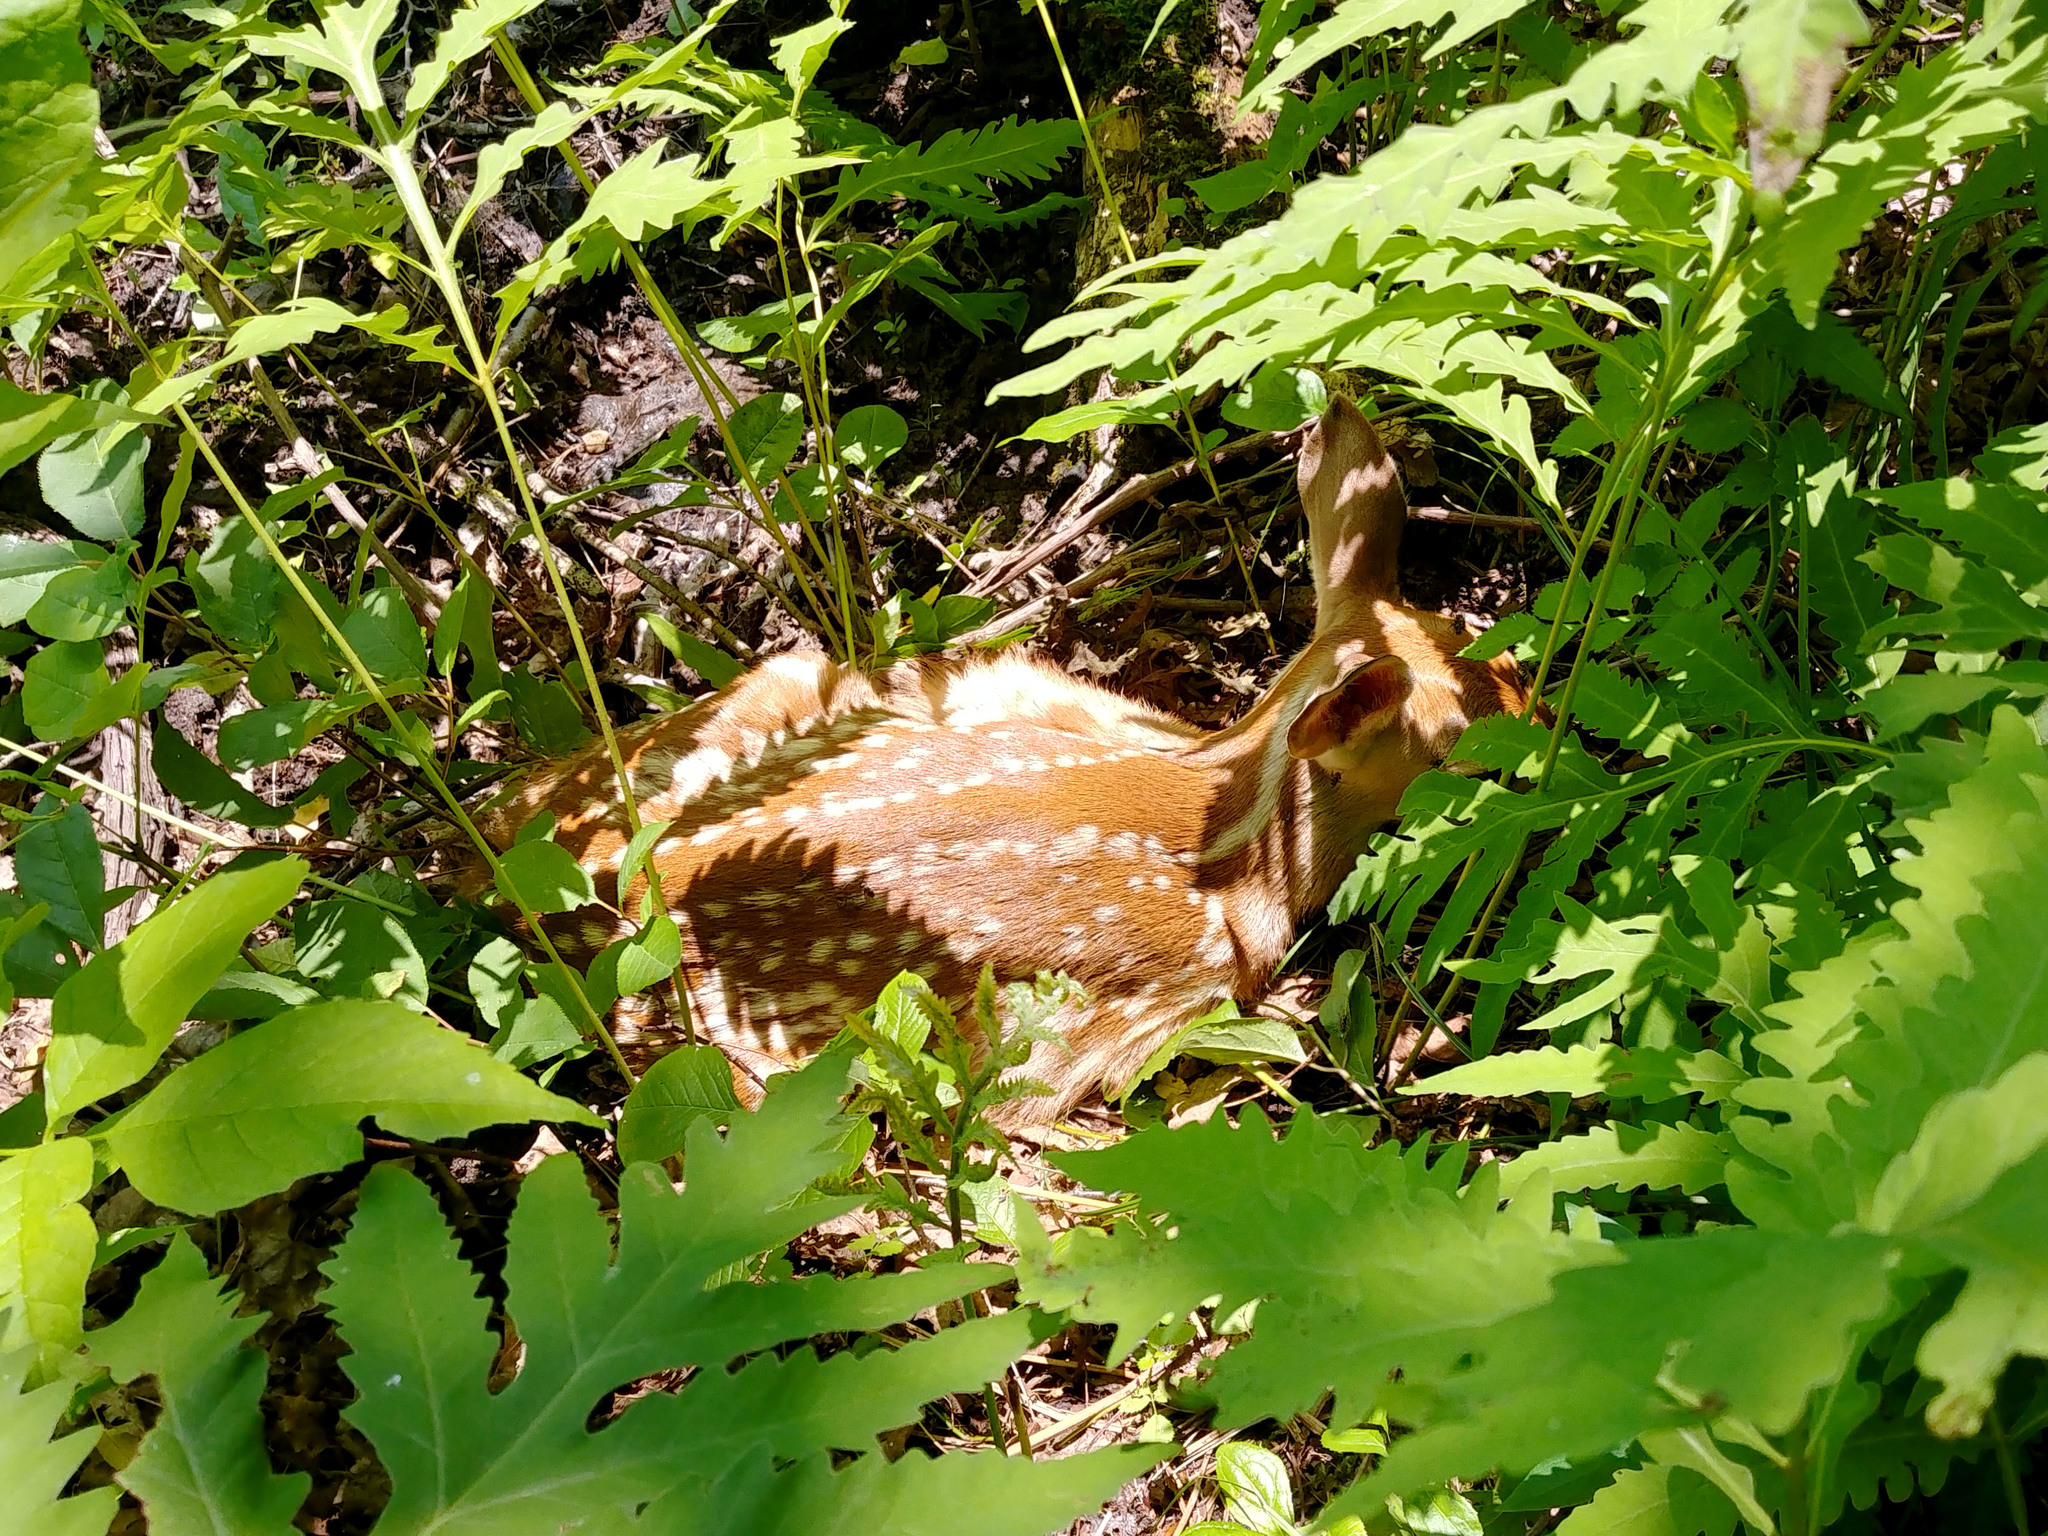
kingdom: Animalia
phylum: Chordata
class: Mammalia
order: Artiodactyla
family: Cervidae
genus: Odocoileus
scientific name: Odocoileus virginianus
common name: White-tailed deer
